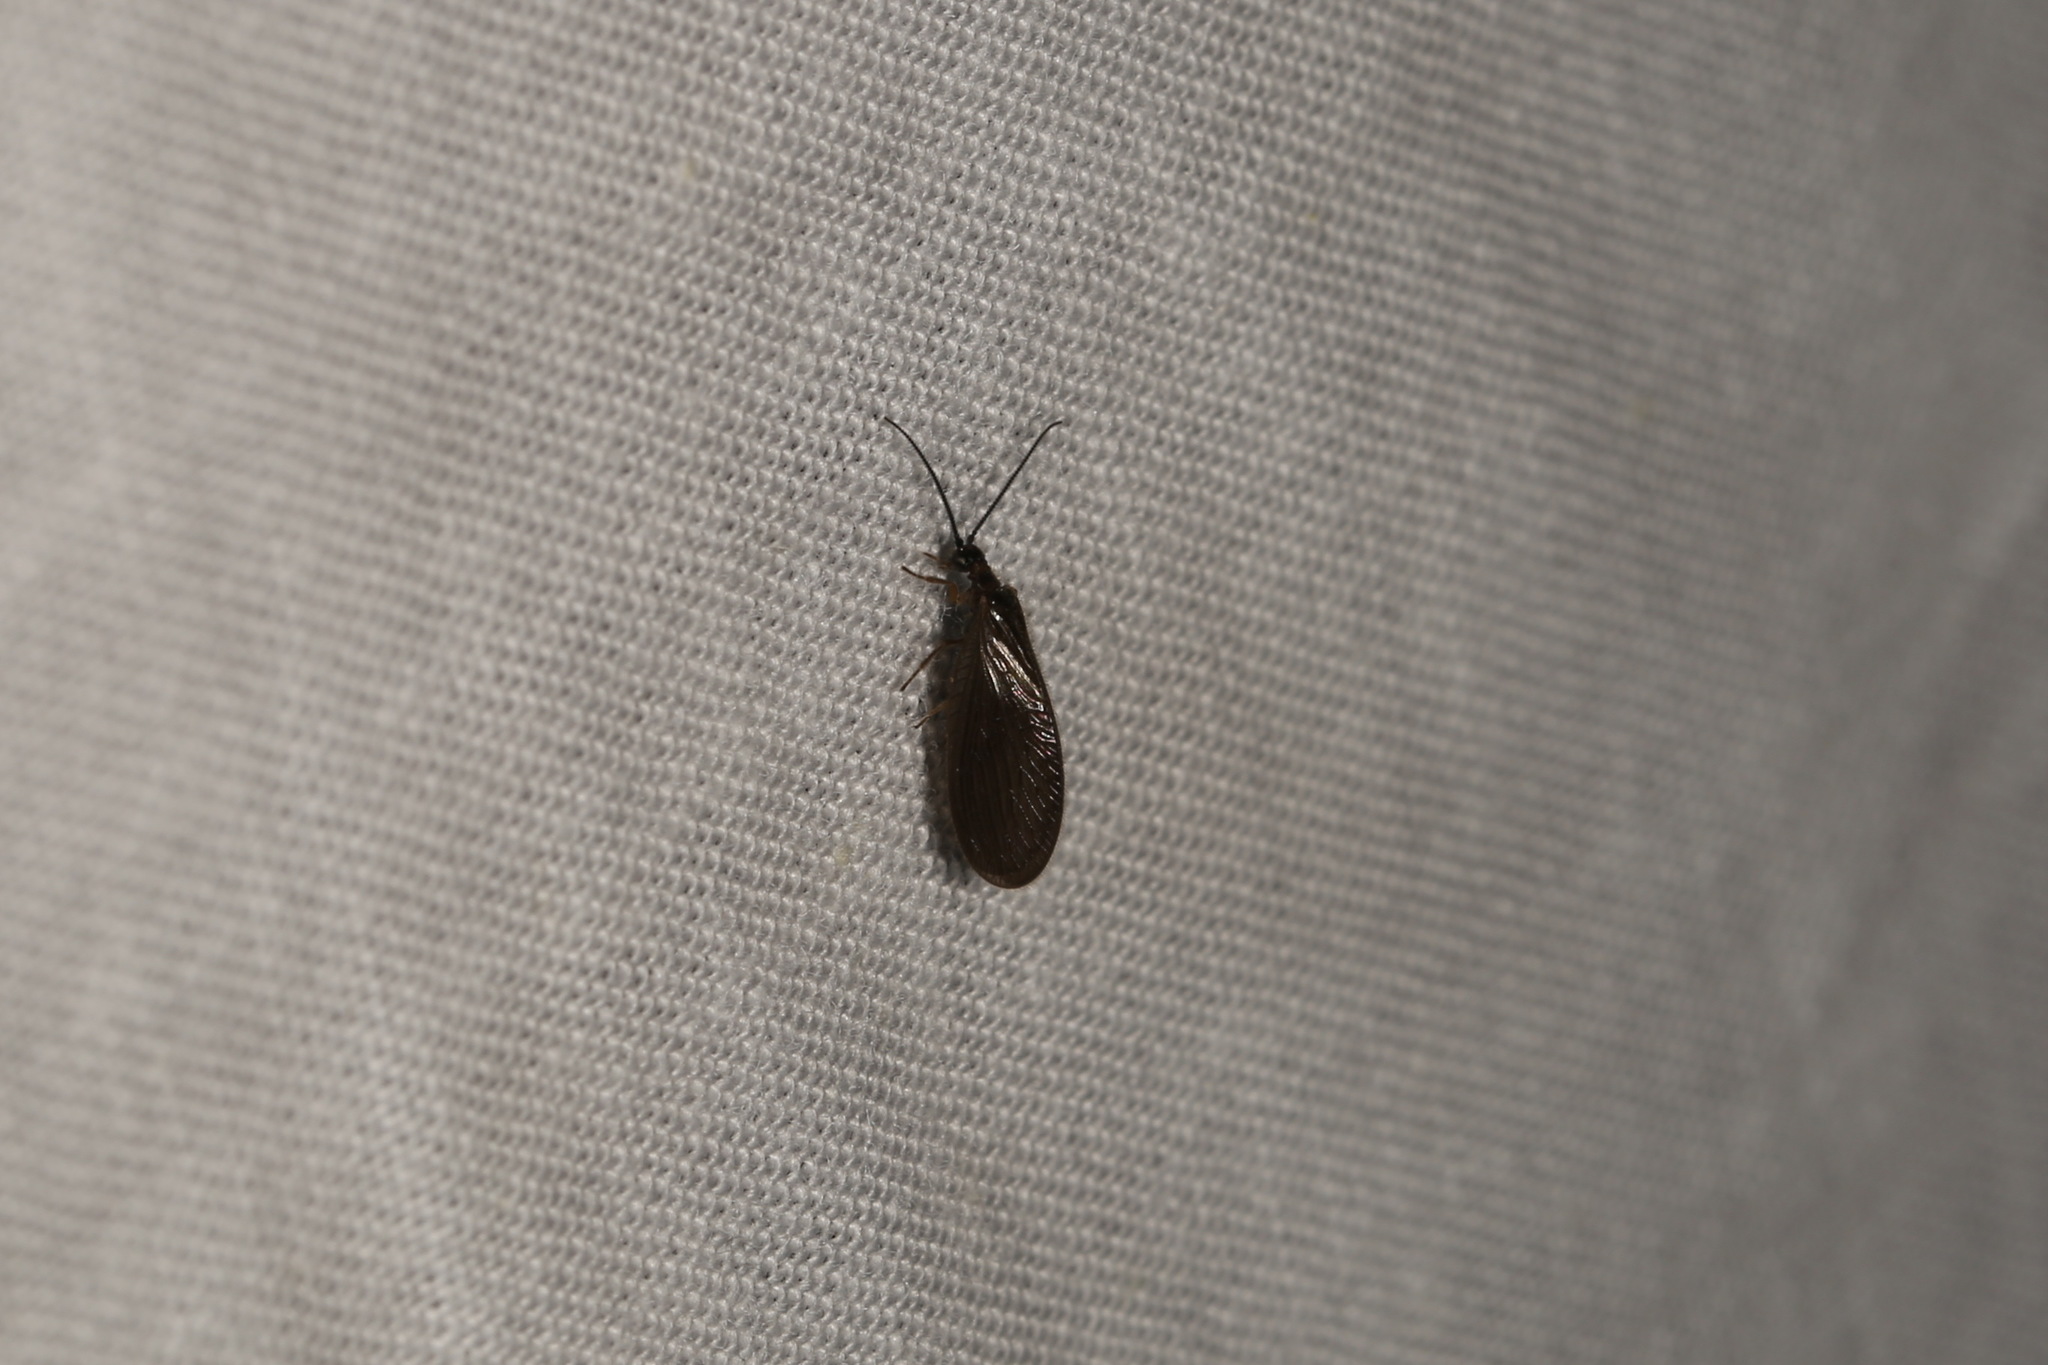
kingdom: Animalia
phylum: Arthropoda
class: Insecta
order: Neuroptera
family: Sisyridae
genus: Sisyra
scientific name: Sisyra nigra
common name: Black spongillafly
